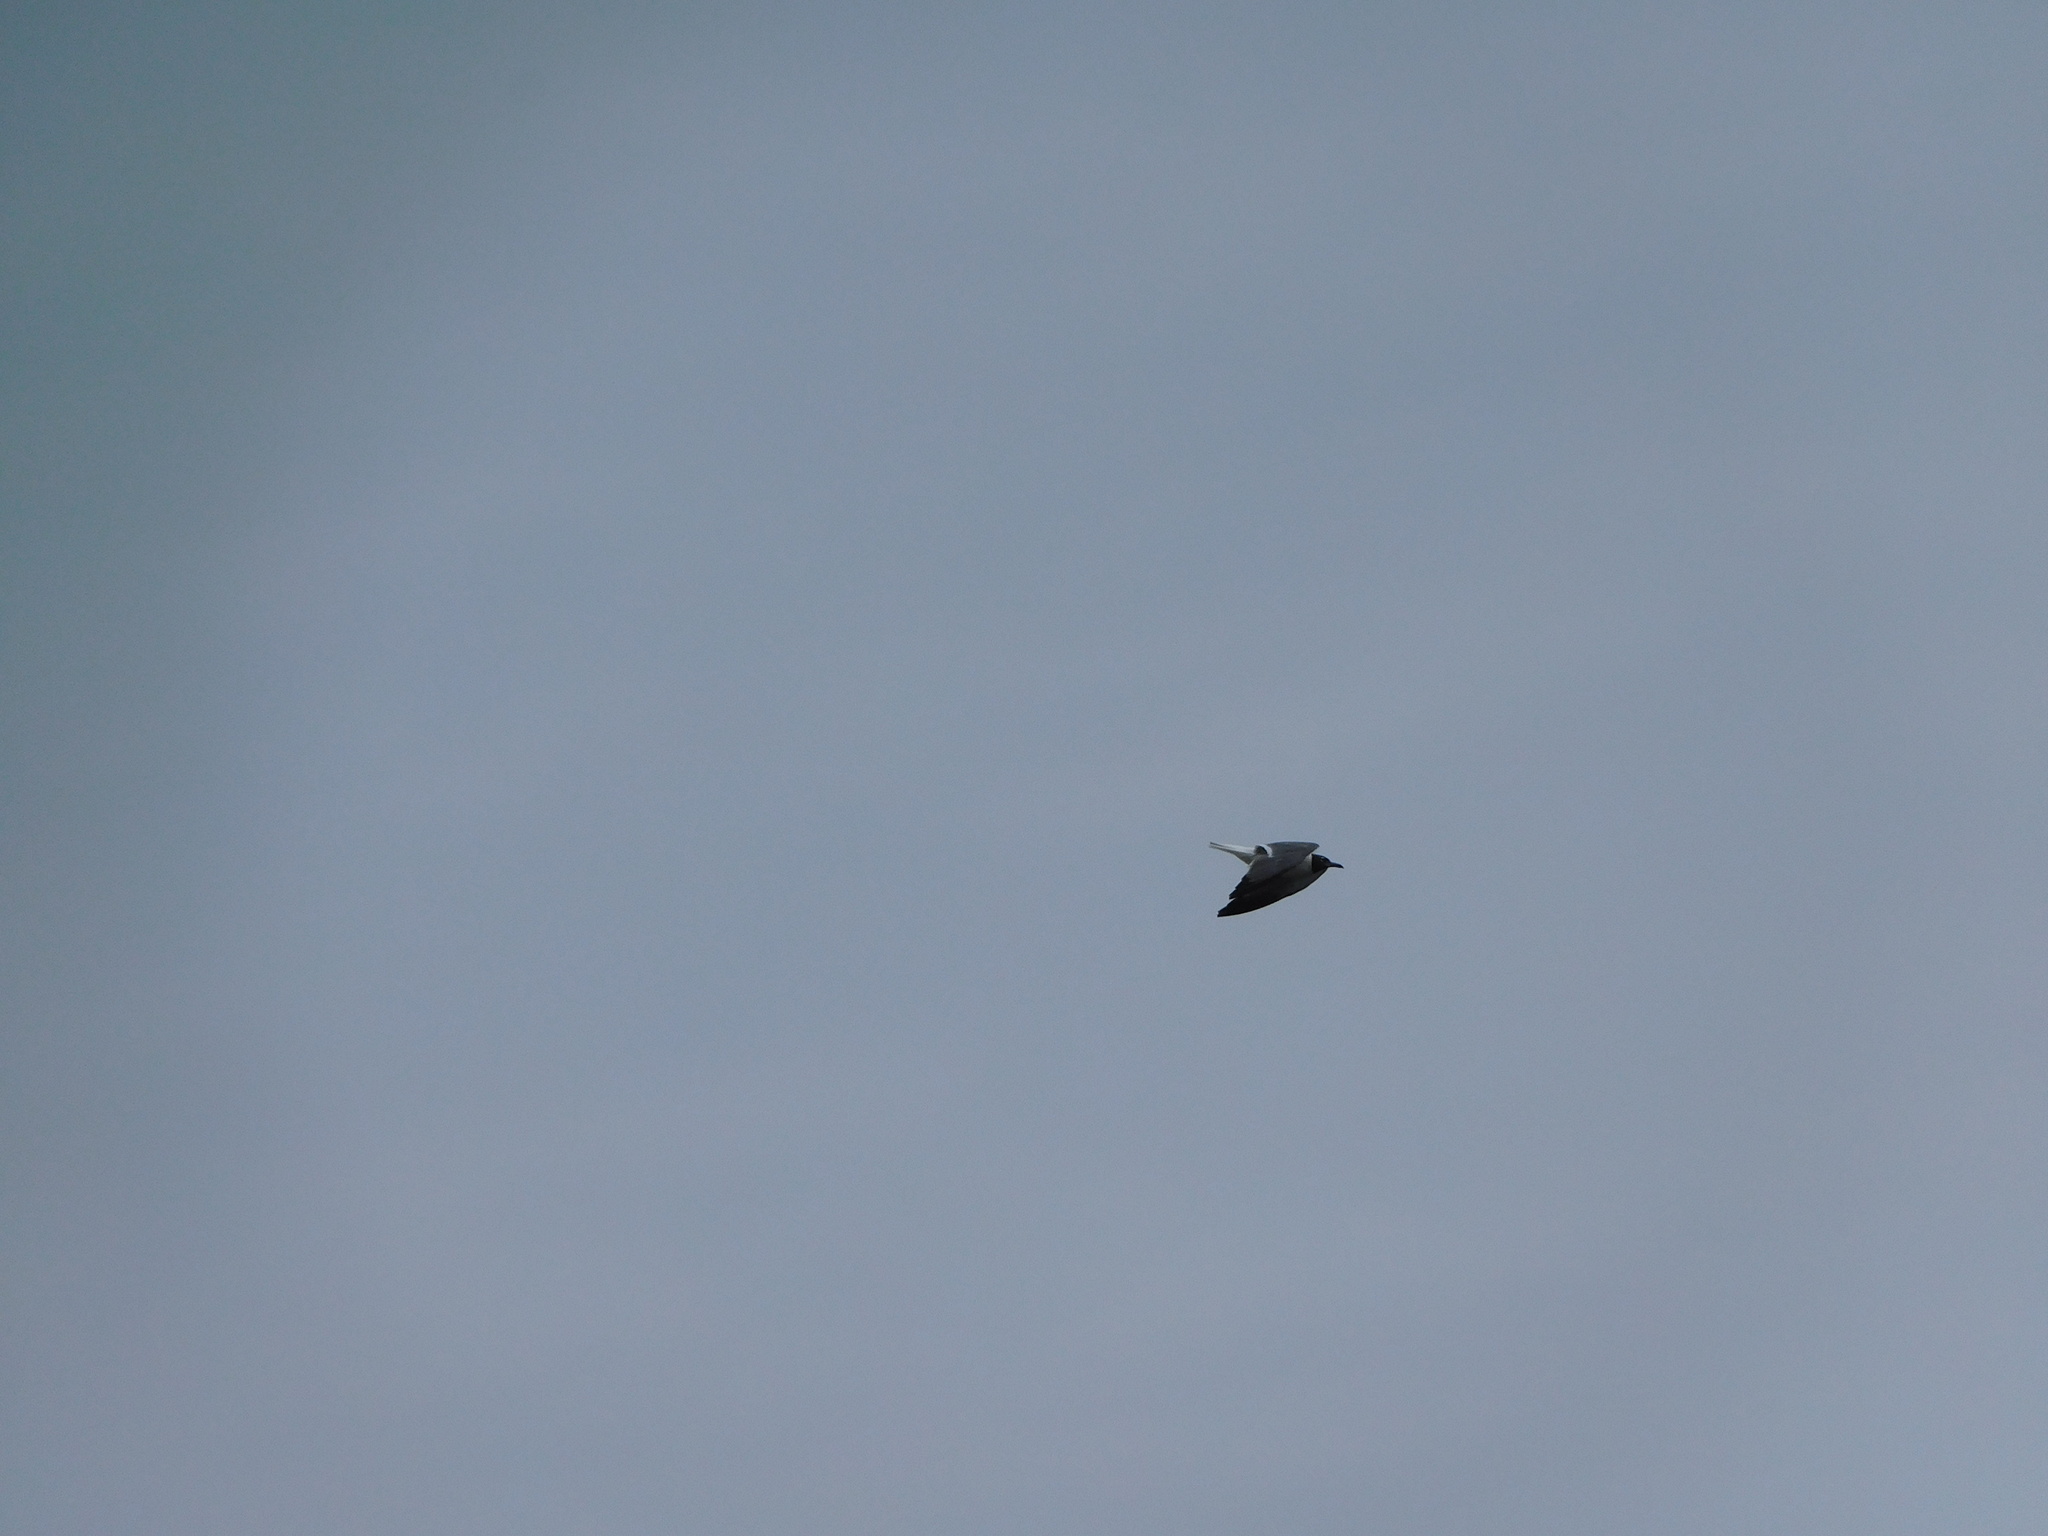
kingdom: Animalia
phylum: Chordata
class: Aves
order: Charadriiformes
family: Laridae
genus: Leucophaeus
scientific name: Leucophaeus atricilla
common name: Laughing gull
